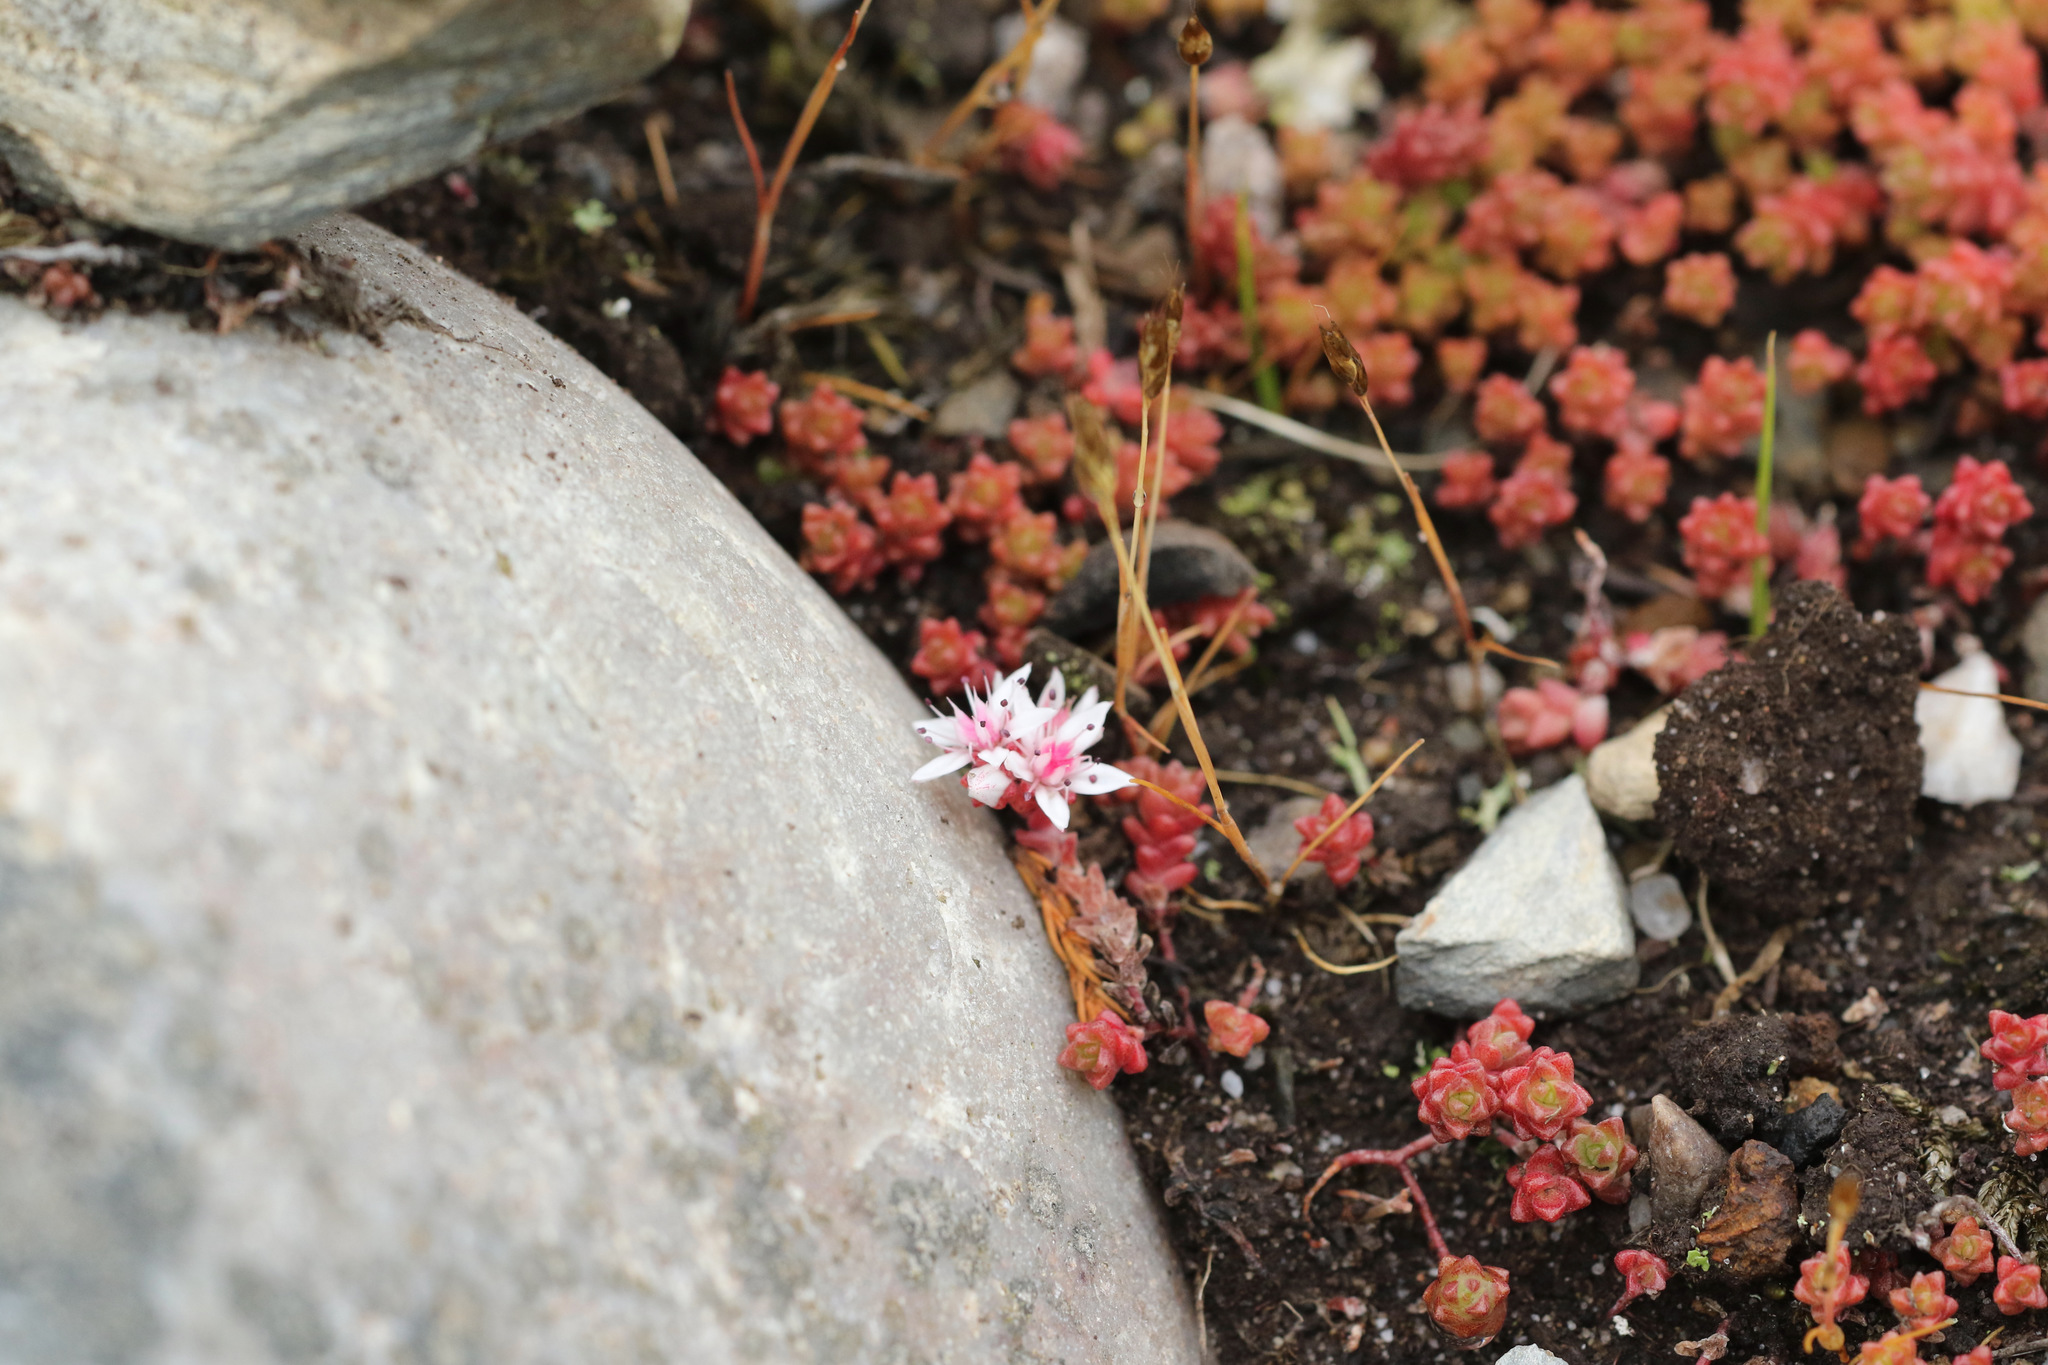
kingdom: Plantae
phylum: Tracheophyta
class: Magnoliopsida
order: Saxifragales
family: Crassulaceae
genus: Sedum
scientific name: Sedum anglicum
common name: English stonecrop
